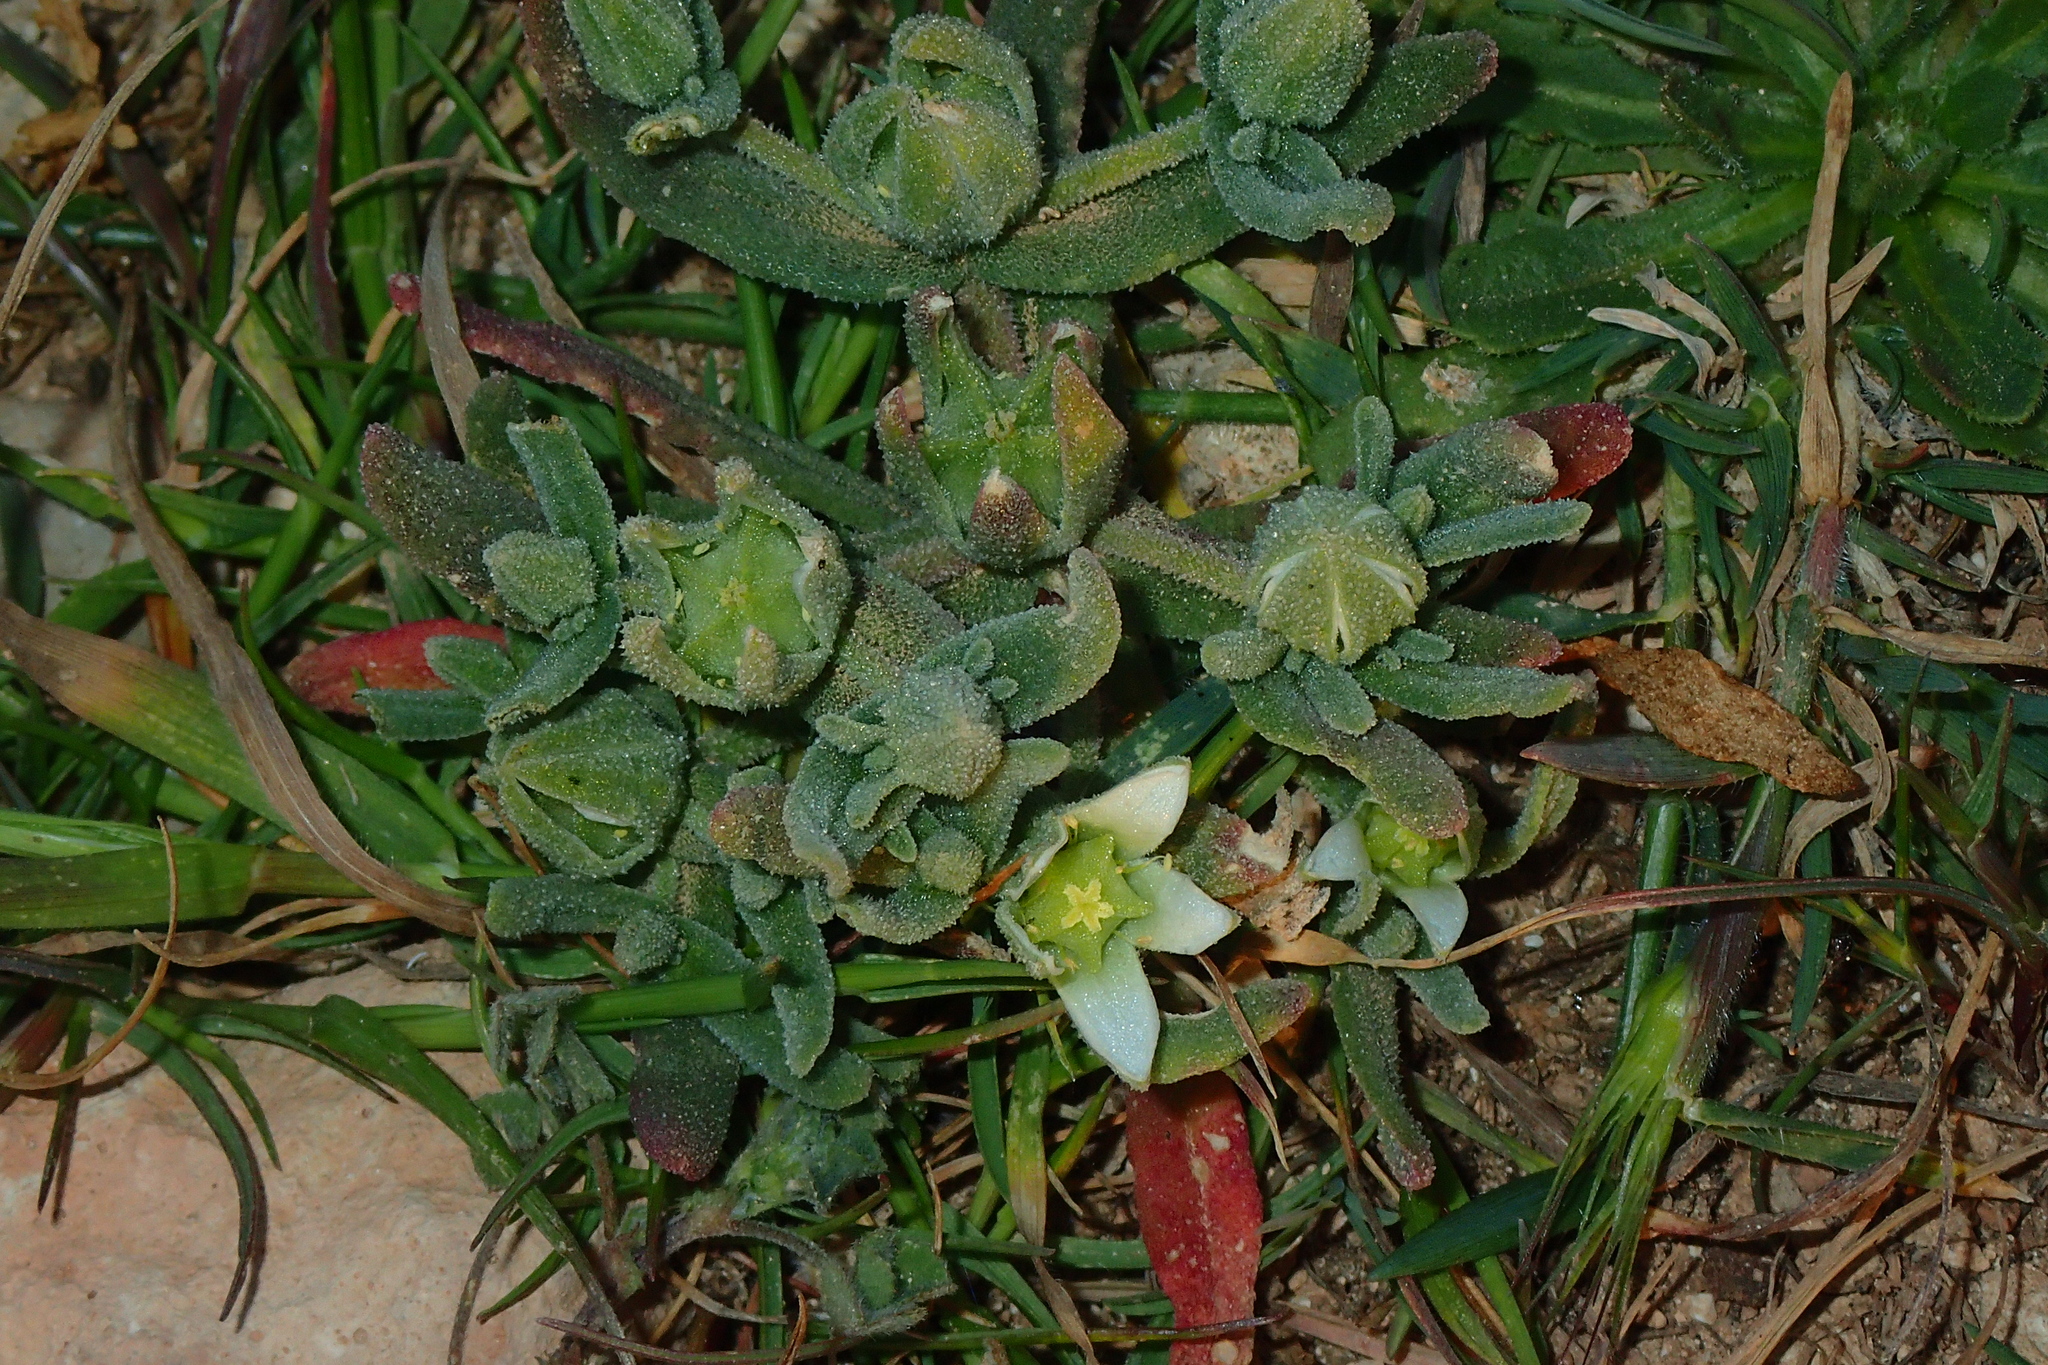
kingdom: Plantae
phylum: Tracheophyta
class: Magnoliopsida
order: Caryophyllales
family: Aizoaceae
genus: Aizoanthemopsis
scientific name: Aizoanthemopsis hispanica
